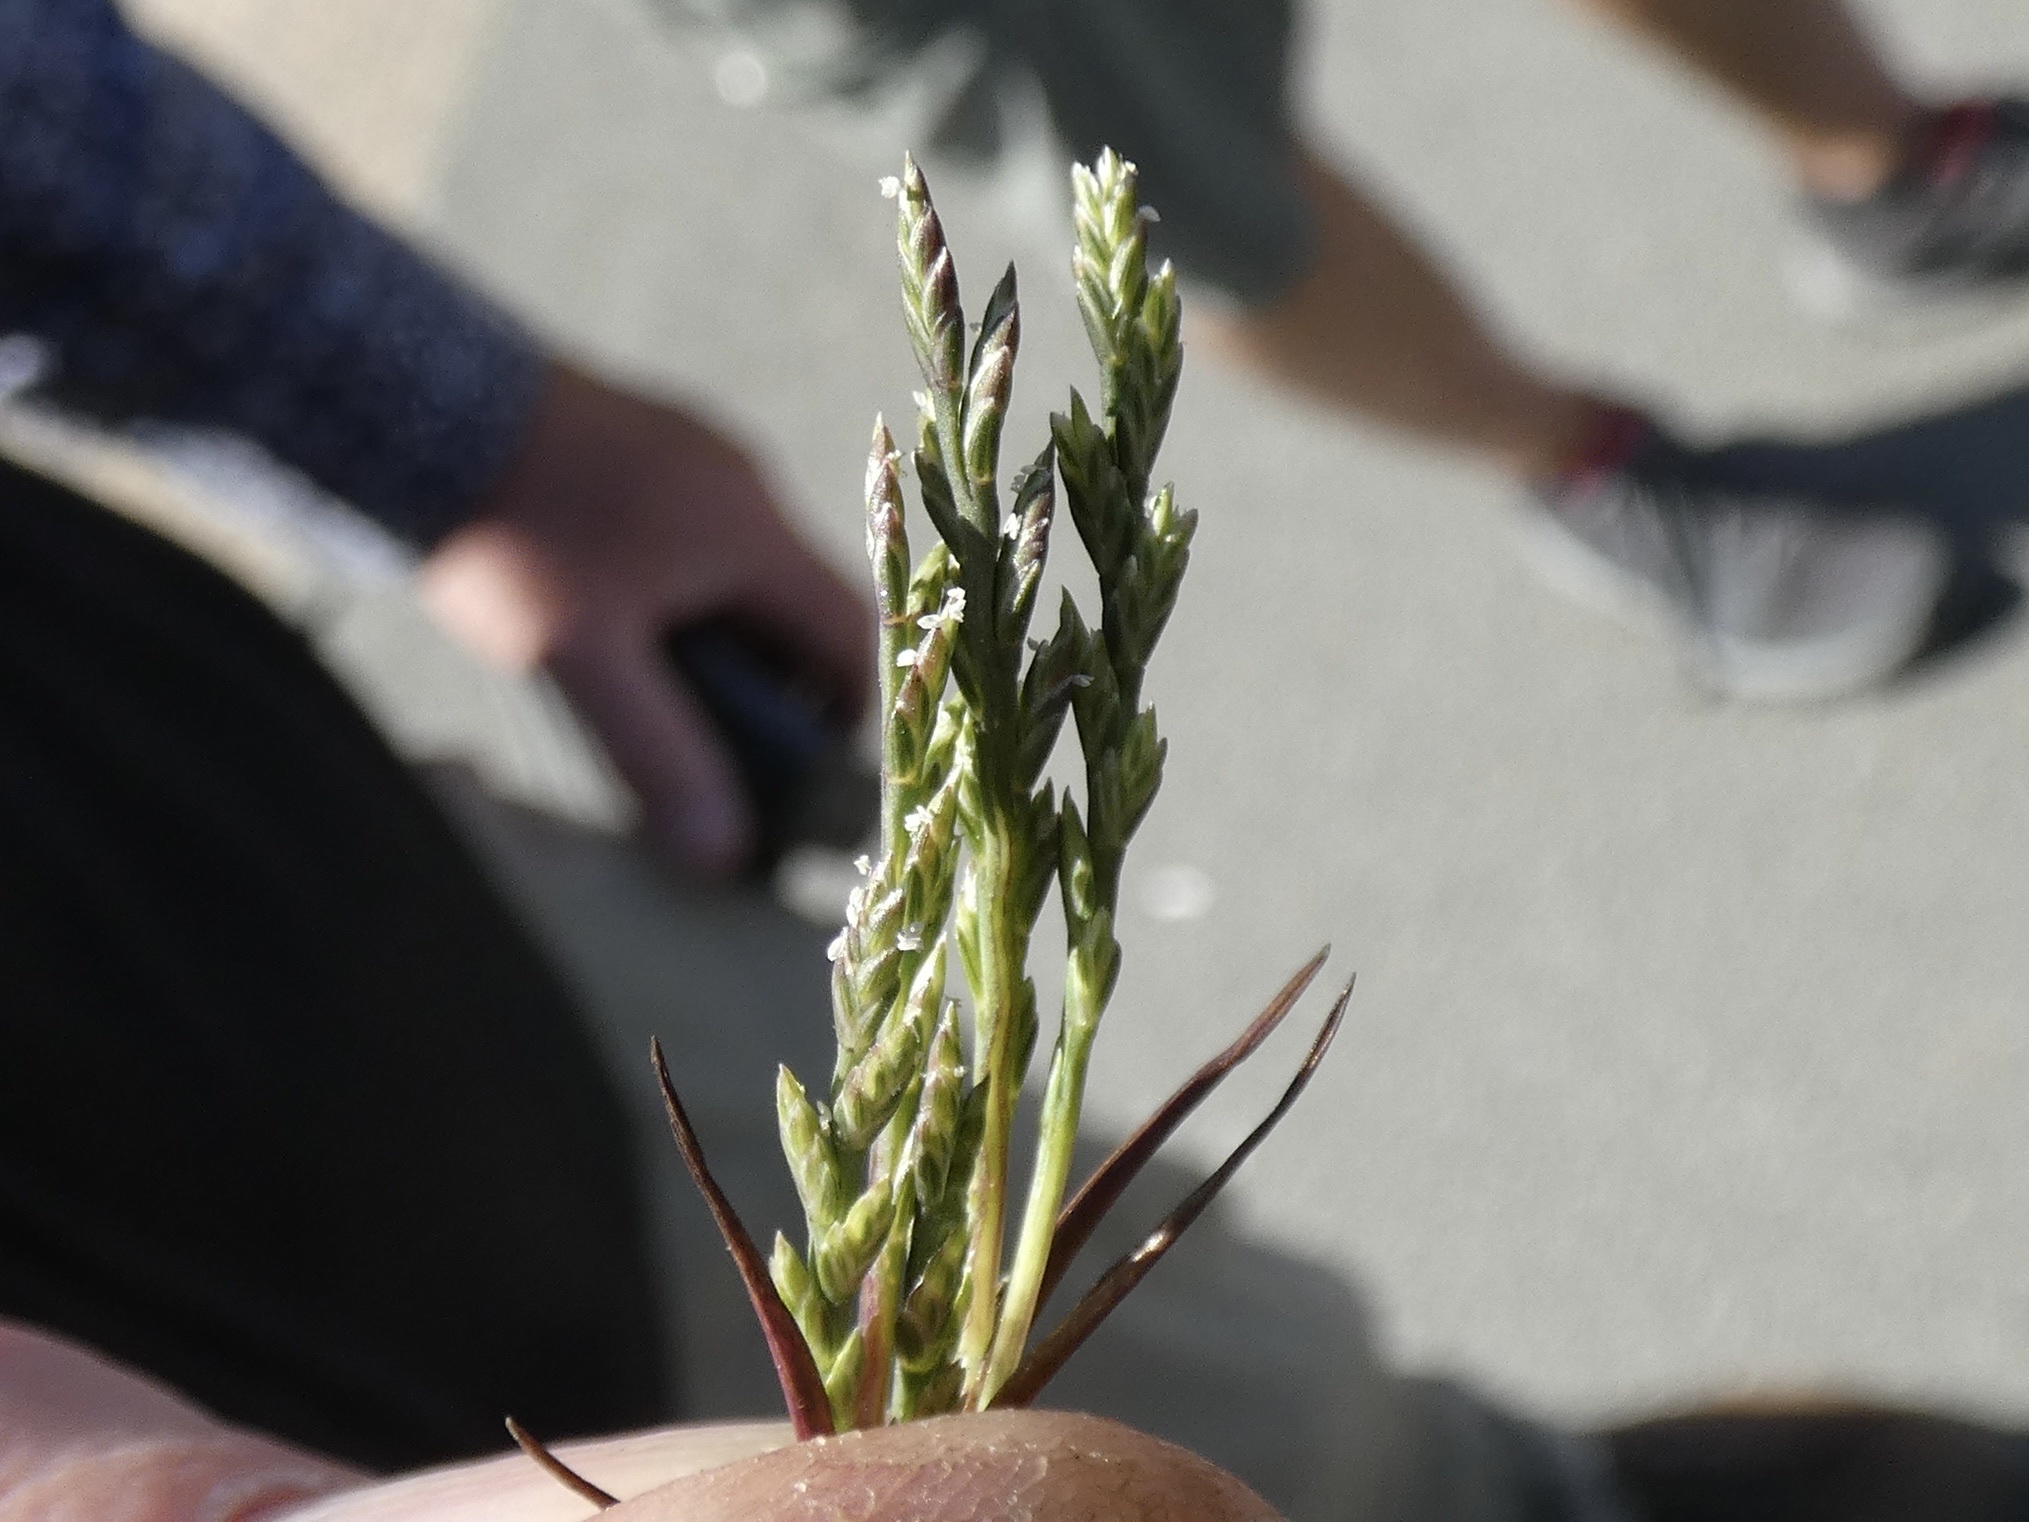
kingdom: Plantae
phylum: Tracheophyta
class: Liliopsida
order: Poales
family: Poaceae
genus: Catapodium
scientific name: Catapodium marinum
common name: Sea fern-grass
